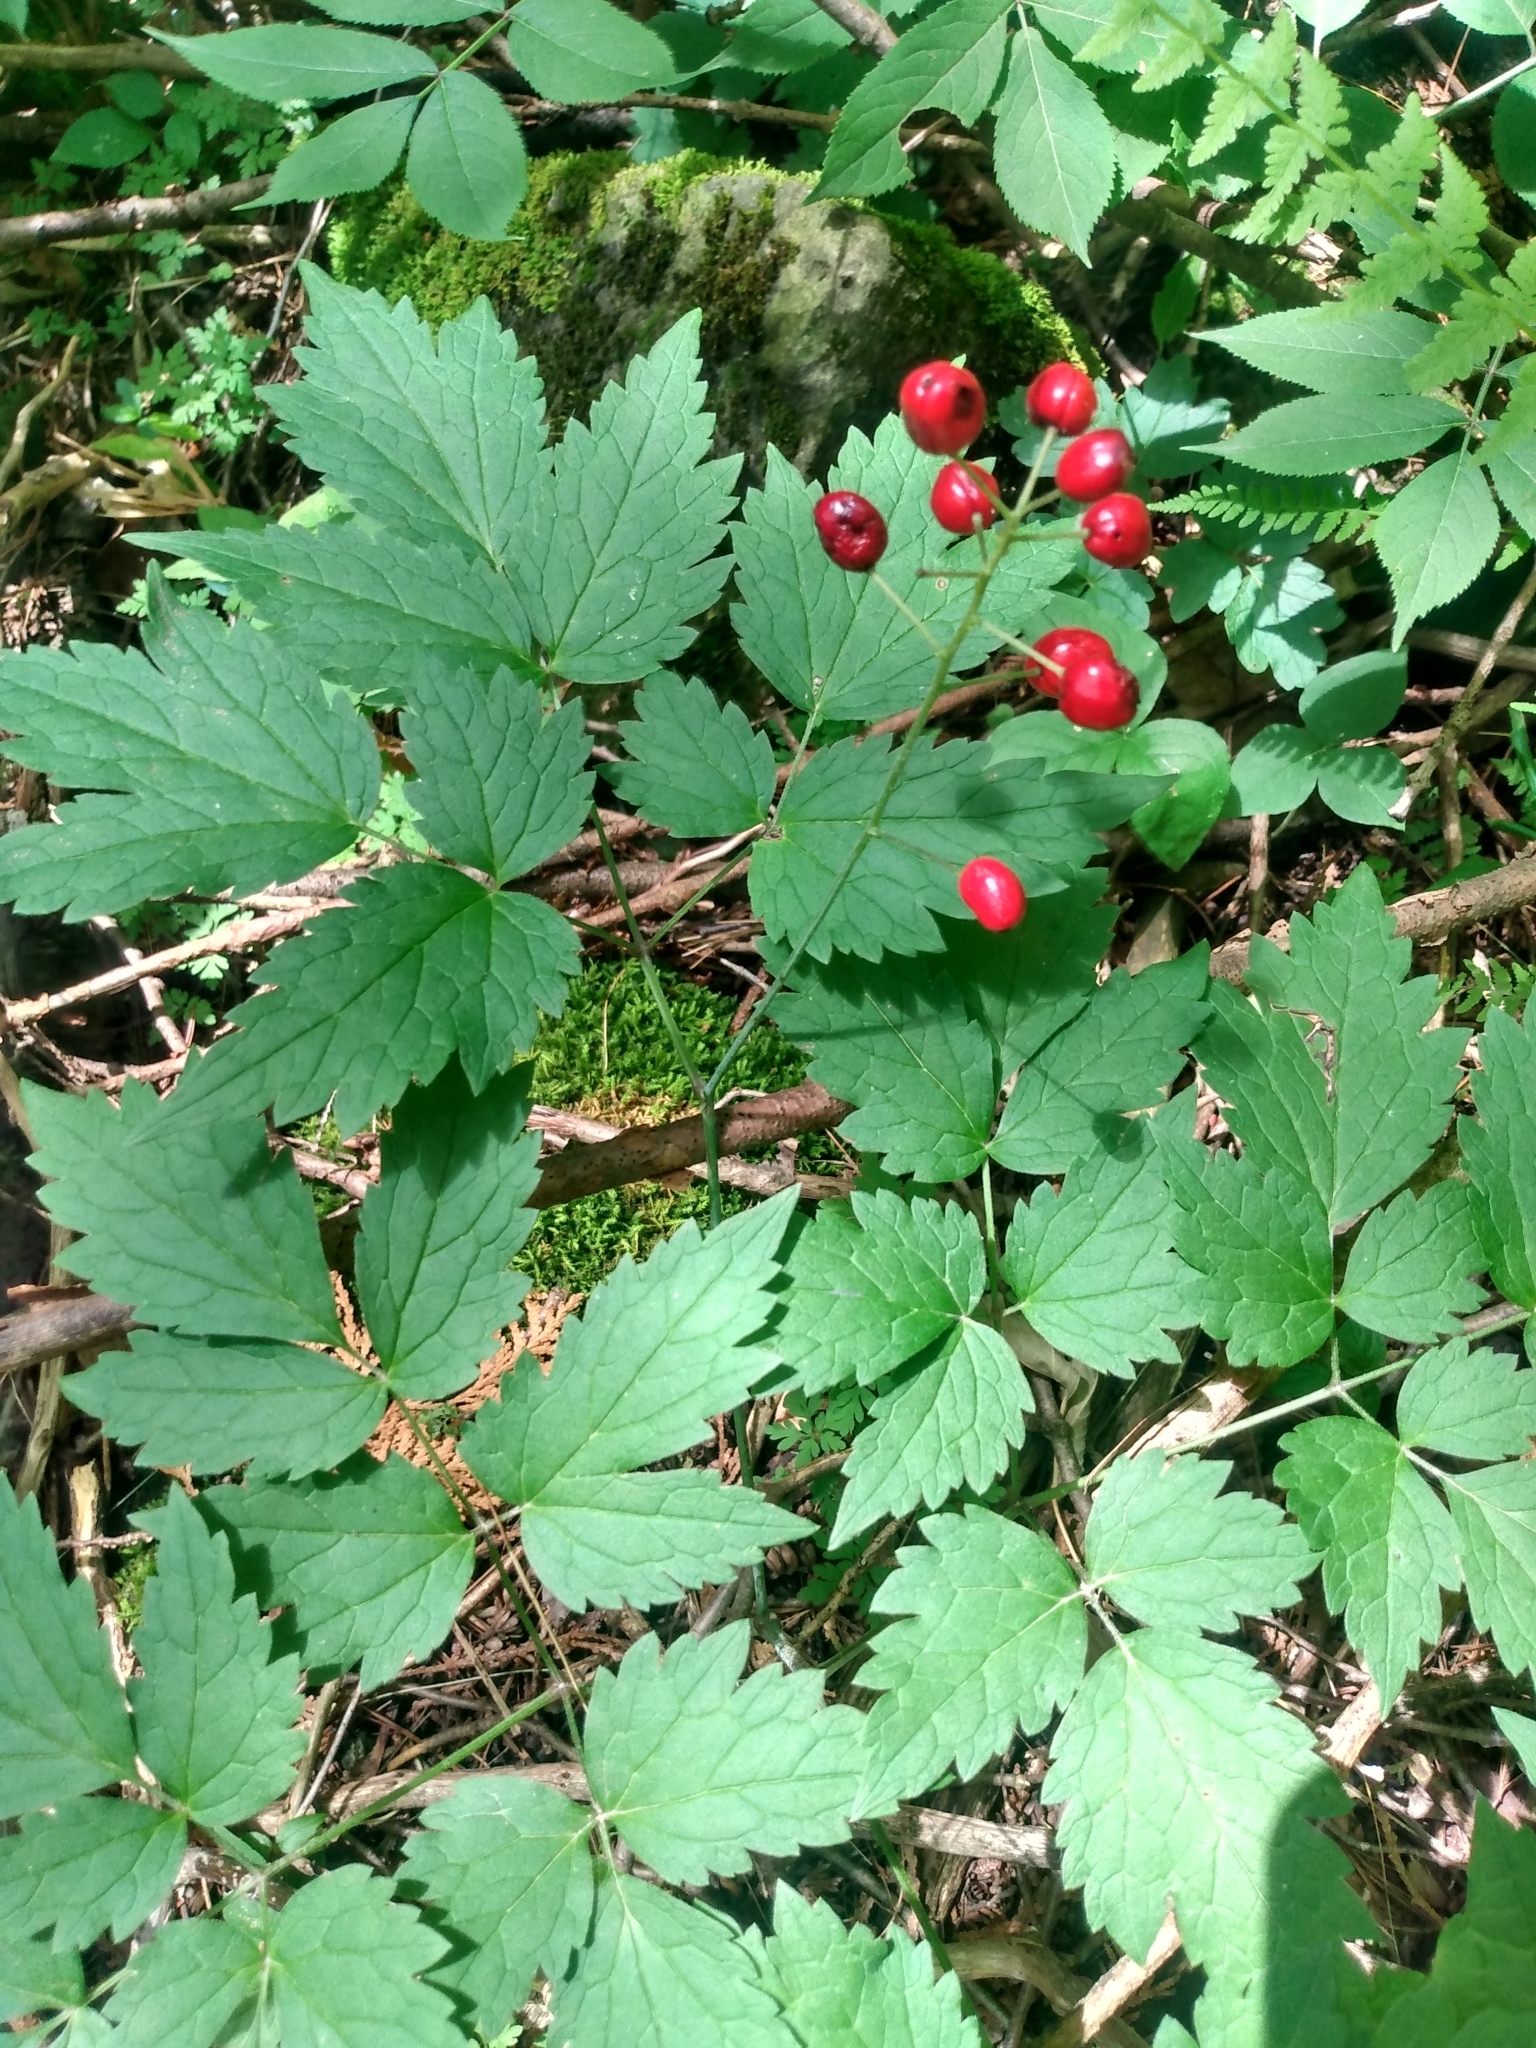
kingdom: Plantae
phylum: Tracheophyta
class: Magnoliopsida
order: Ranunculales
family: Ranunculaceae
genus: Actaea
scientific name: Actaea rubra
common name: Red baneberry
